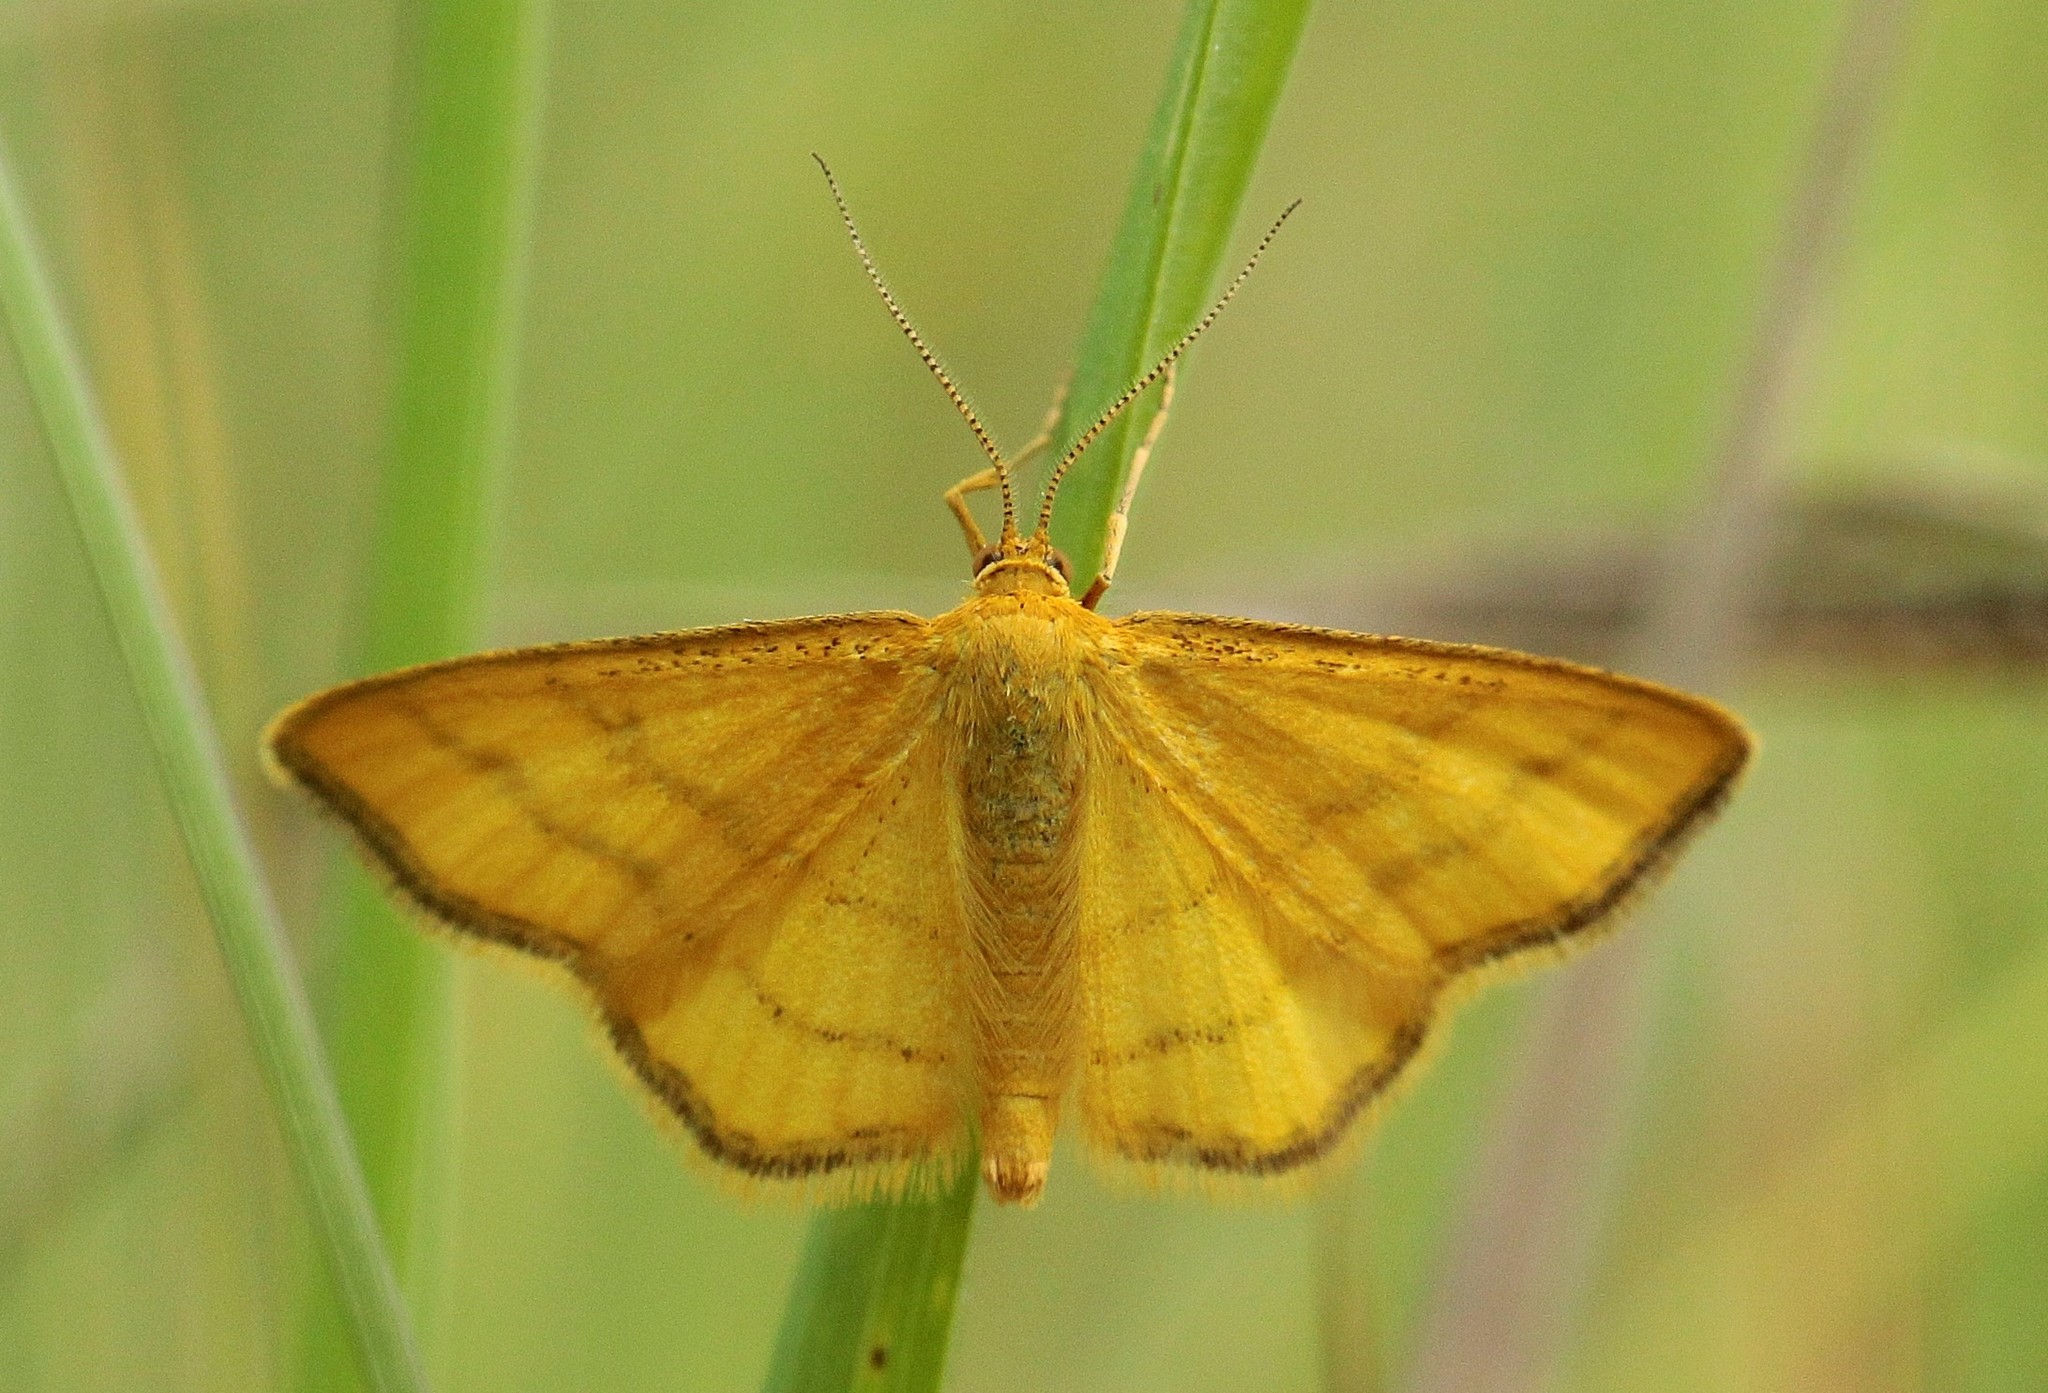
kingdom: Animalia
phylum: Arthropoda
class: Insecta
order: Lepidoptera
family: Geometridae
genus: Idaea
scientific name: Idaea aureolaria
